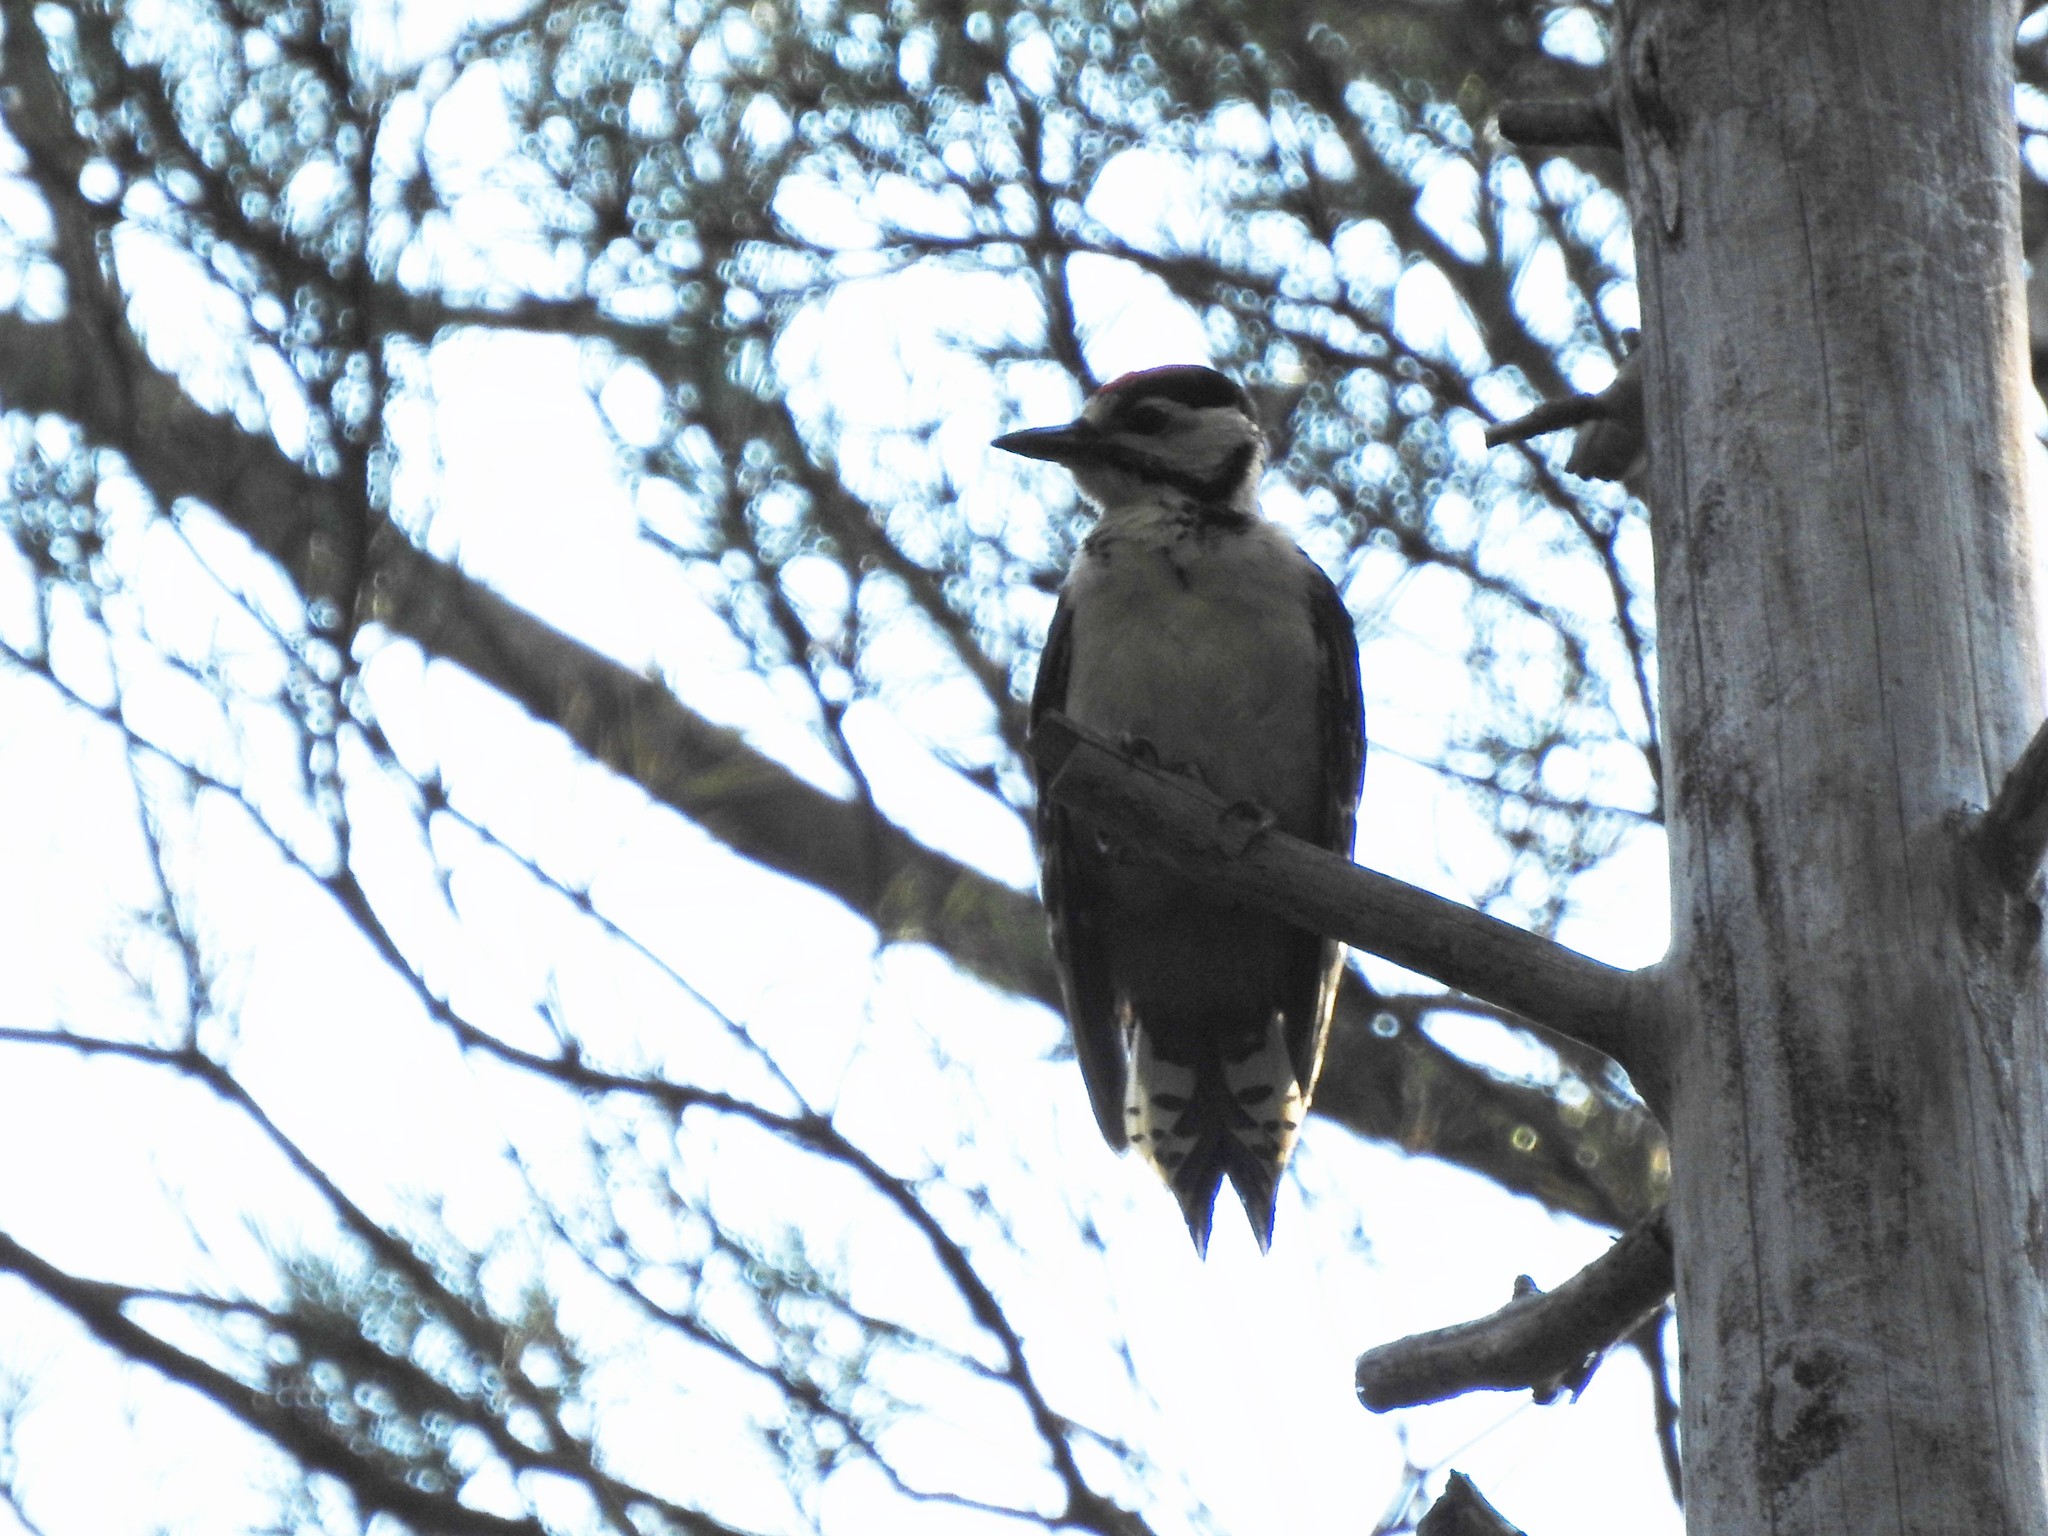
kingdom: Animalia
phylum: Chordata
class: Aves
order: Piciformes
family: Picidae
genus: Dendrocopos
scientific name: Dendrocopos major
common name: Great spotted woodpecker
